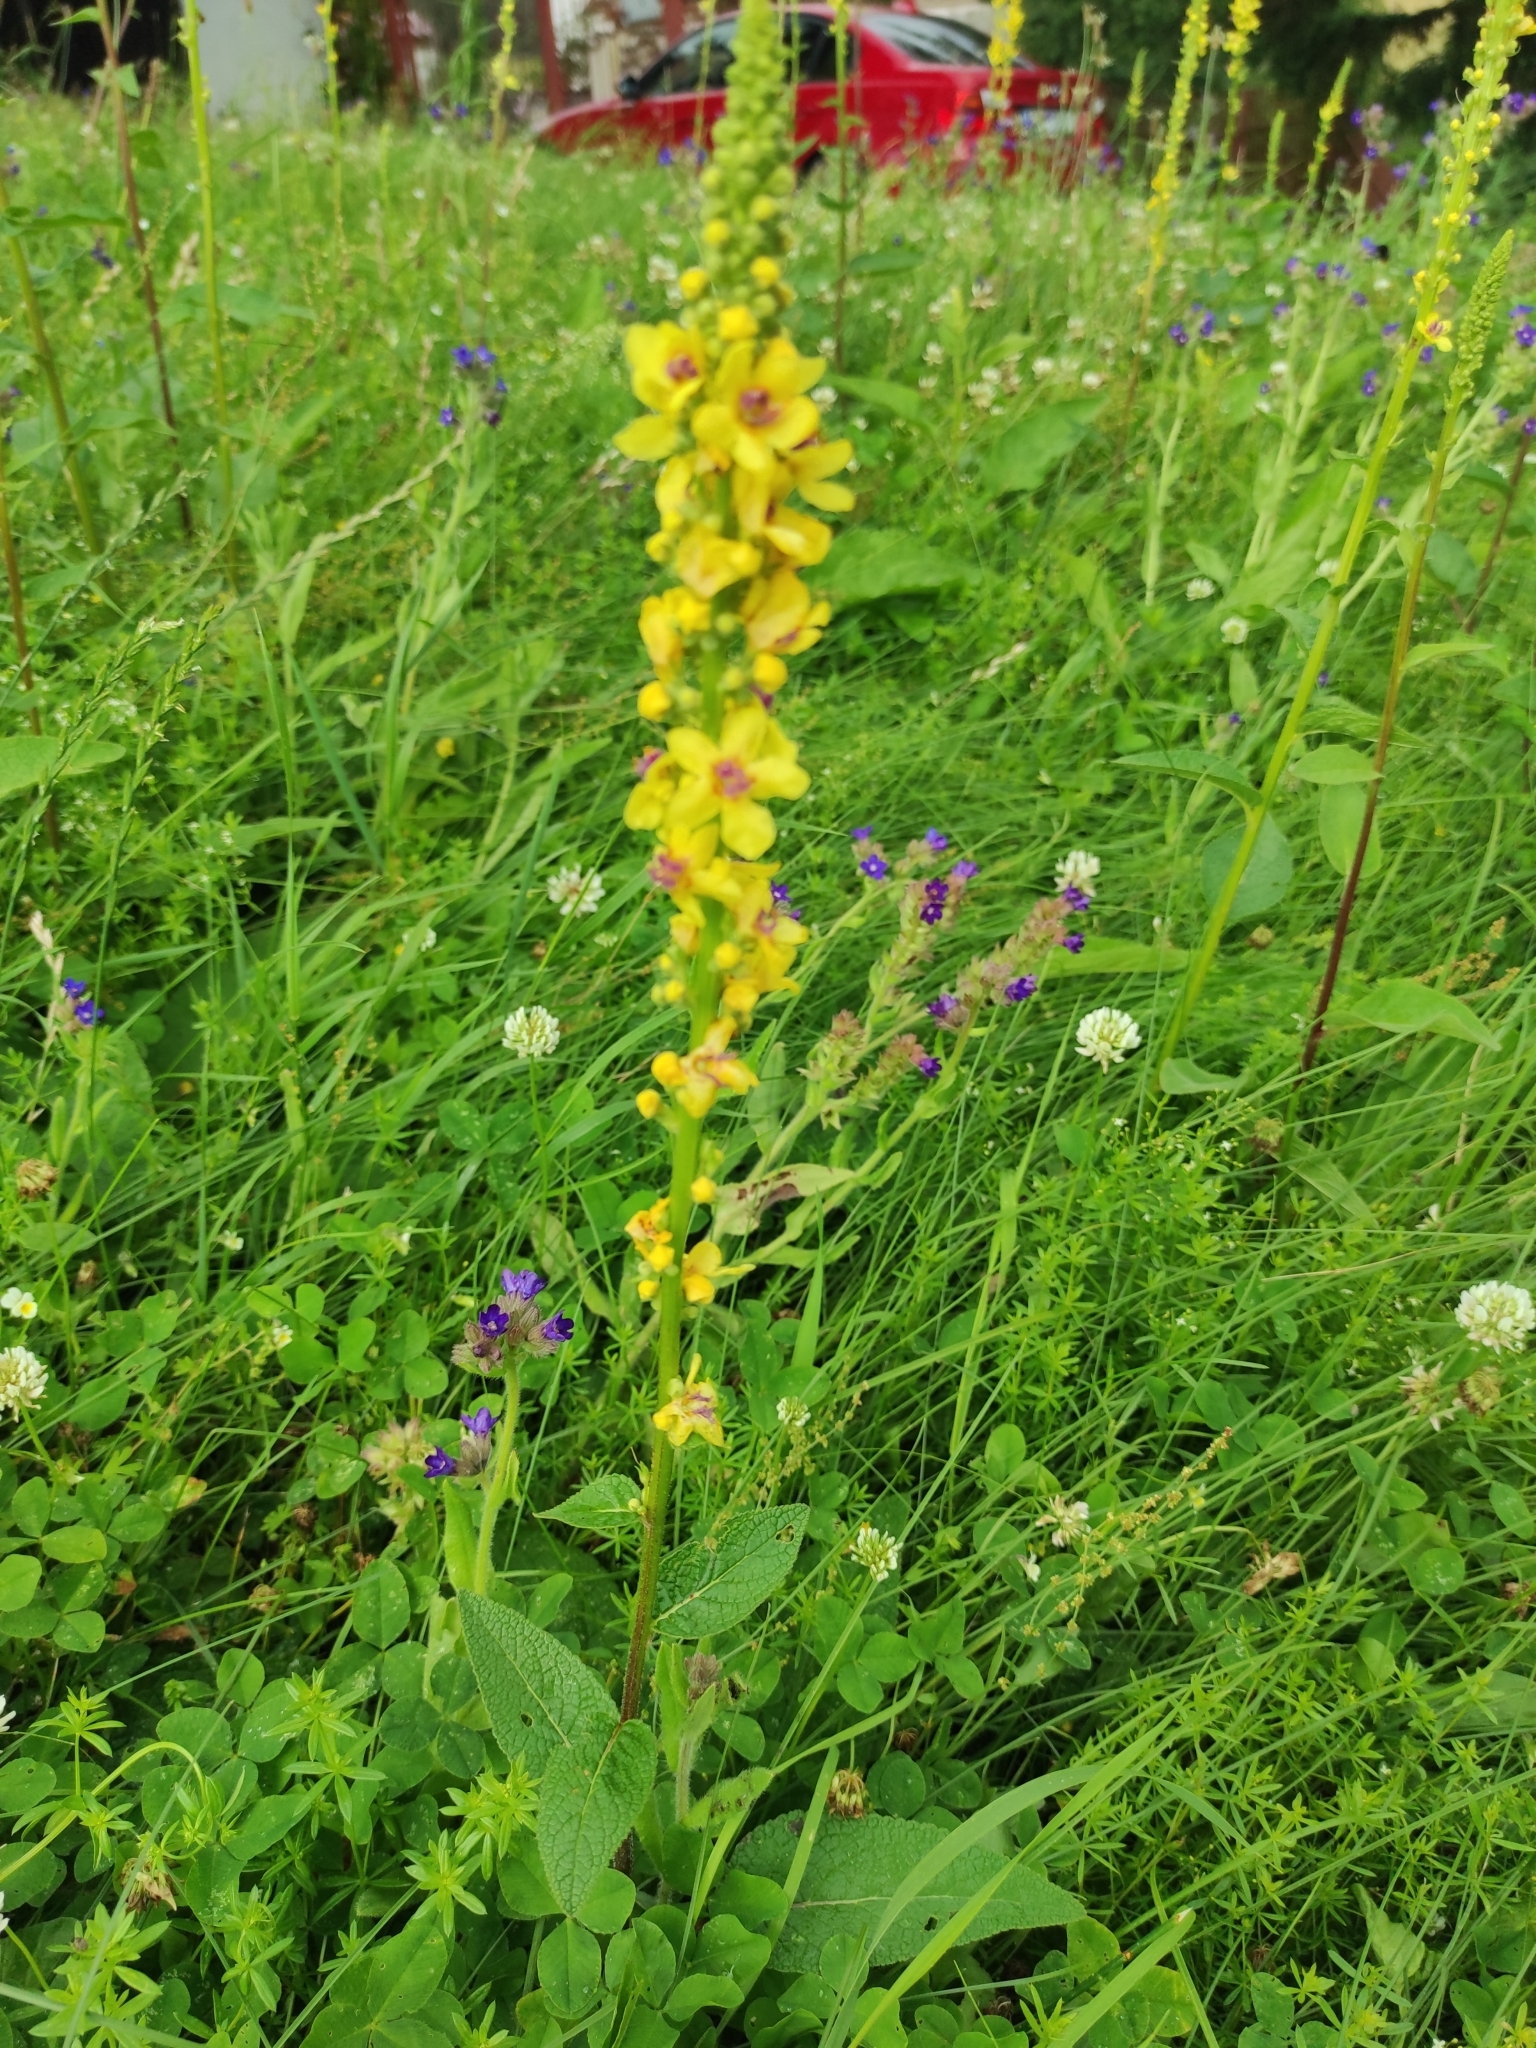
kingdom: Plantae
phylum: Tracheophyta
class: Magnoliopsida
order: Lamiales
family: Scrophulariaceae
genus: Verbascum
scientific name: Verbascum nigrum
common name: Dark mullein
